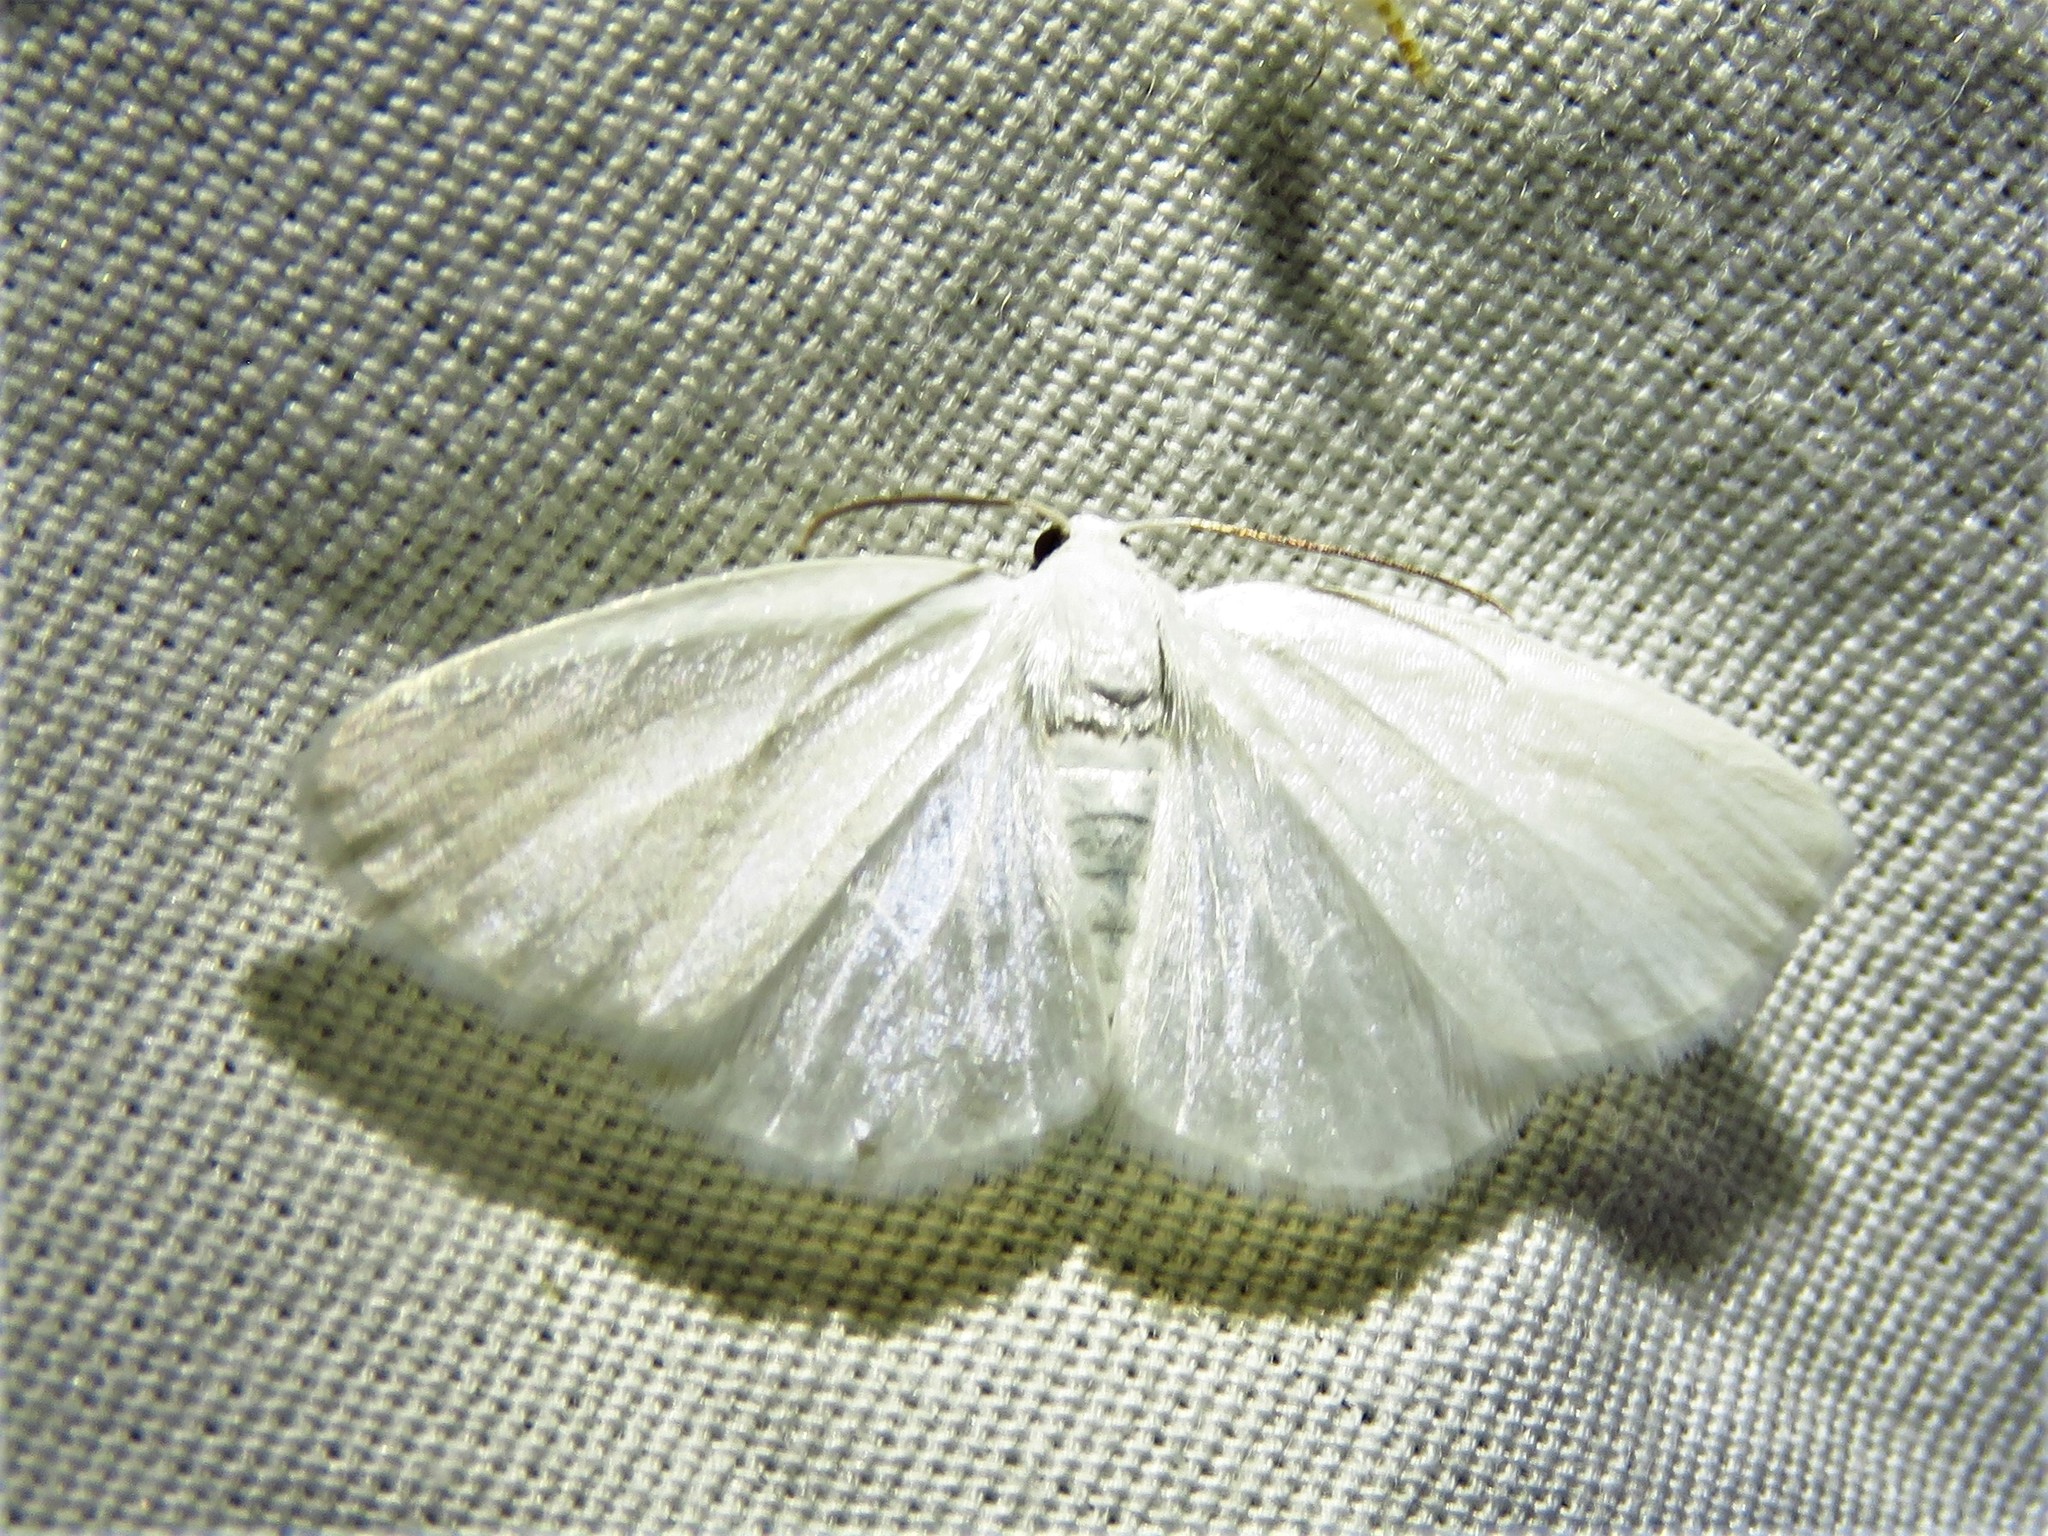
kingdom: Animalia
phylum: Arthropoda
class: Insecta
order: Lepidoptera
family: Geometridae
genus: Lomographa
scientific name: Lomographa vestaliata
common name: White spring moth
